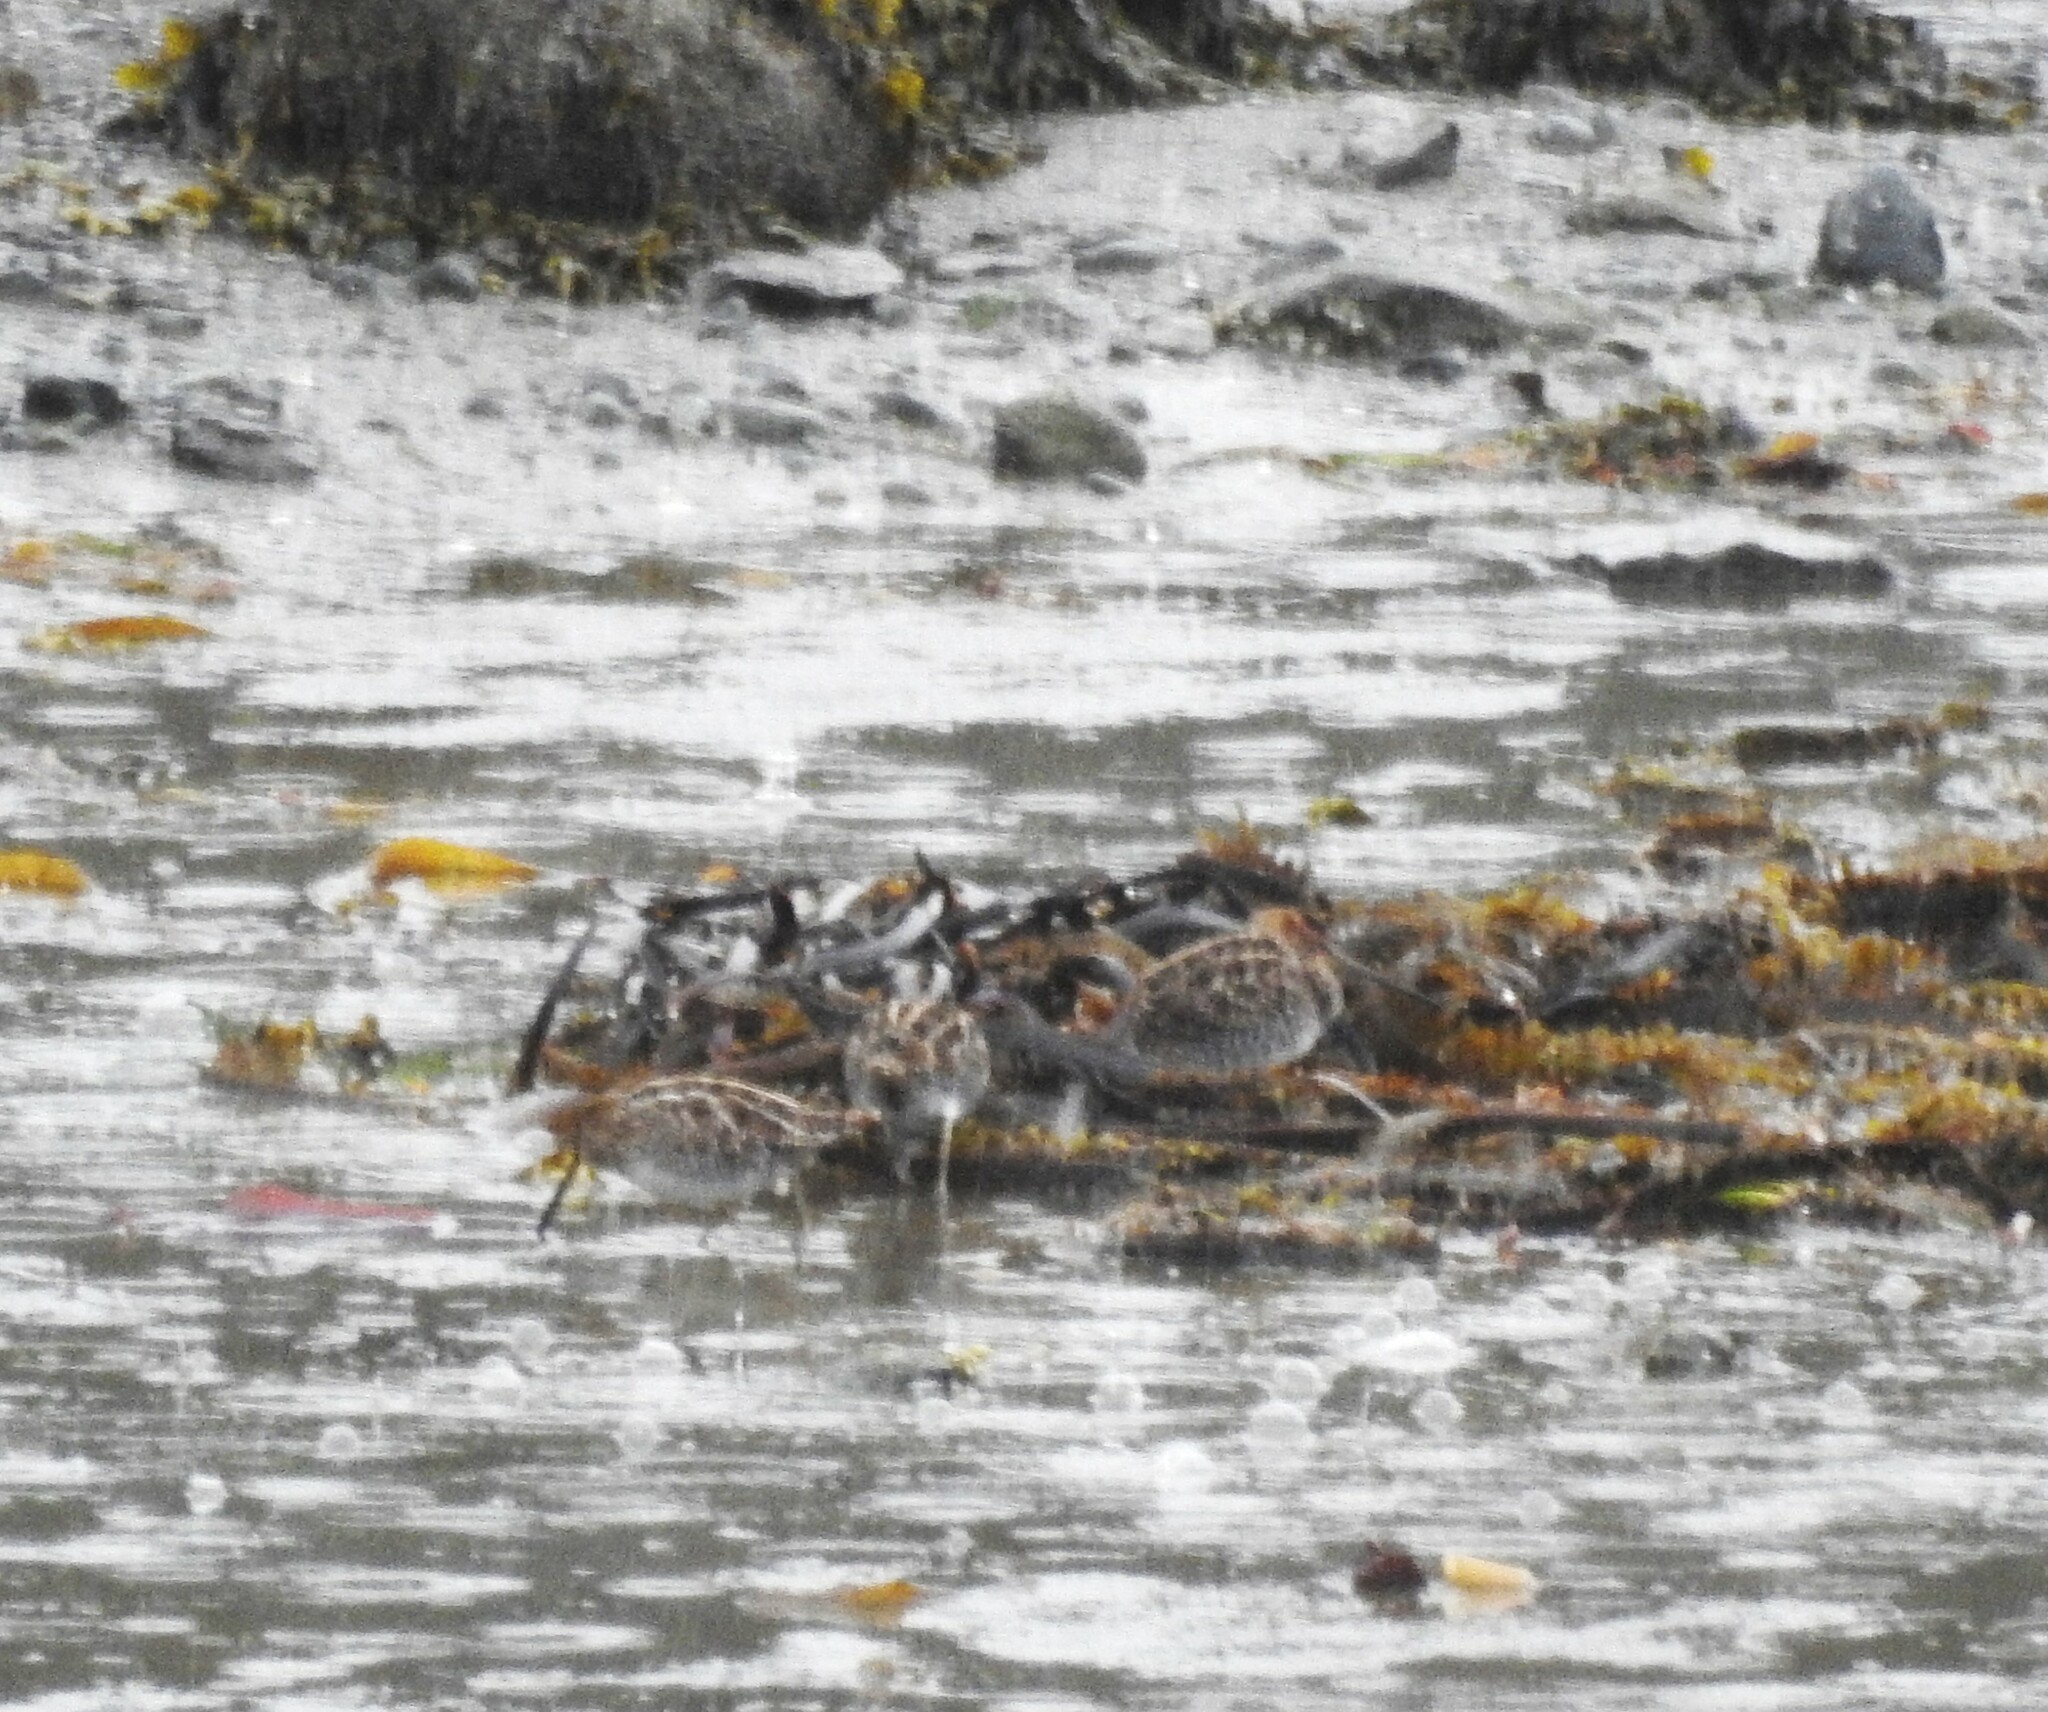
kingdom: Animalia
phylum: Chordata
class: Aves
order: Charadriiformes
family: Scolopacidae
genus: Gallinago
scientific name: Gallinago delicata
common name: Wilson's snipe
